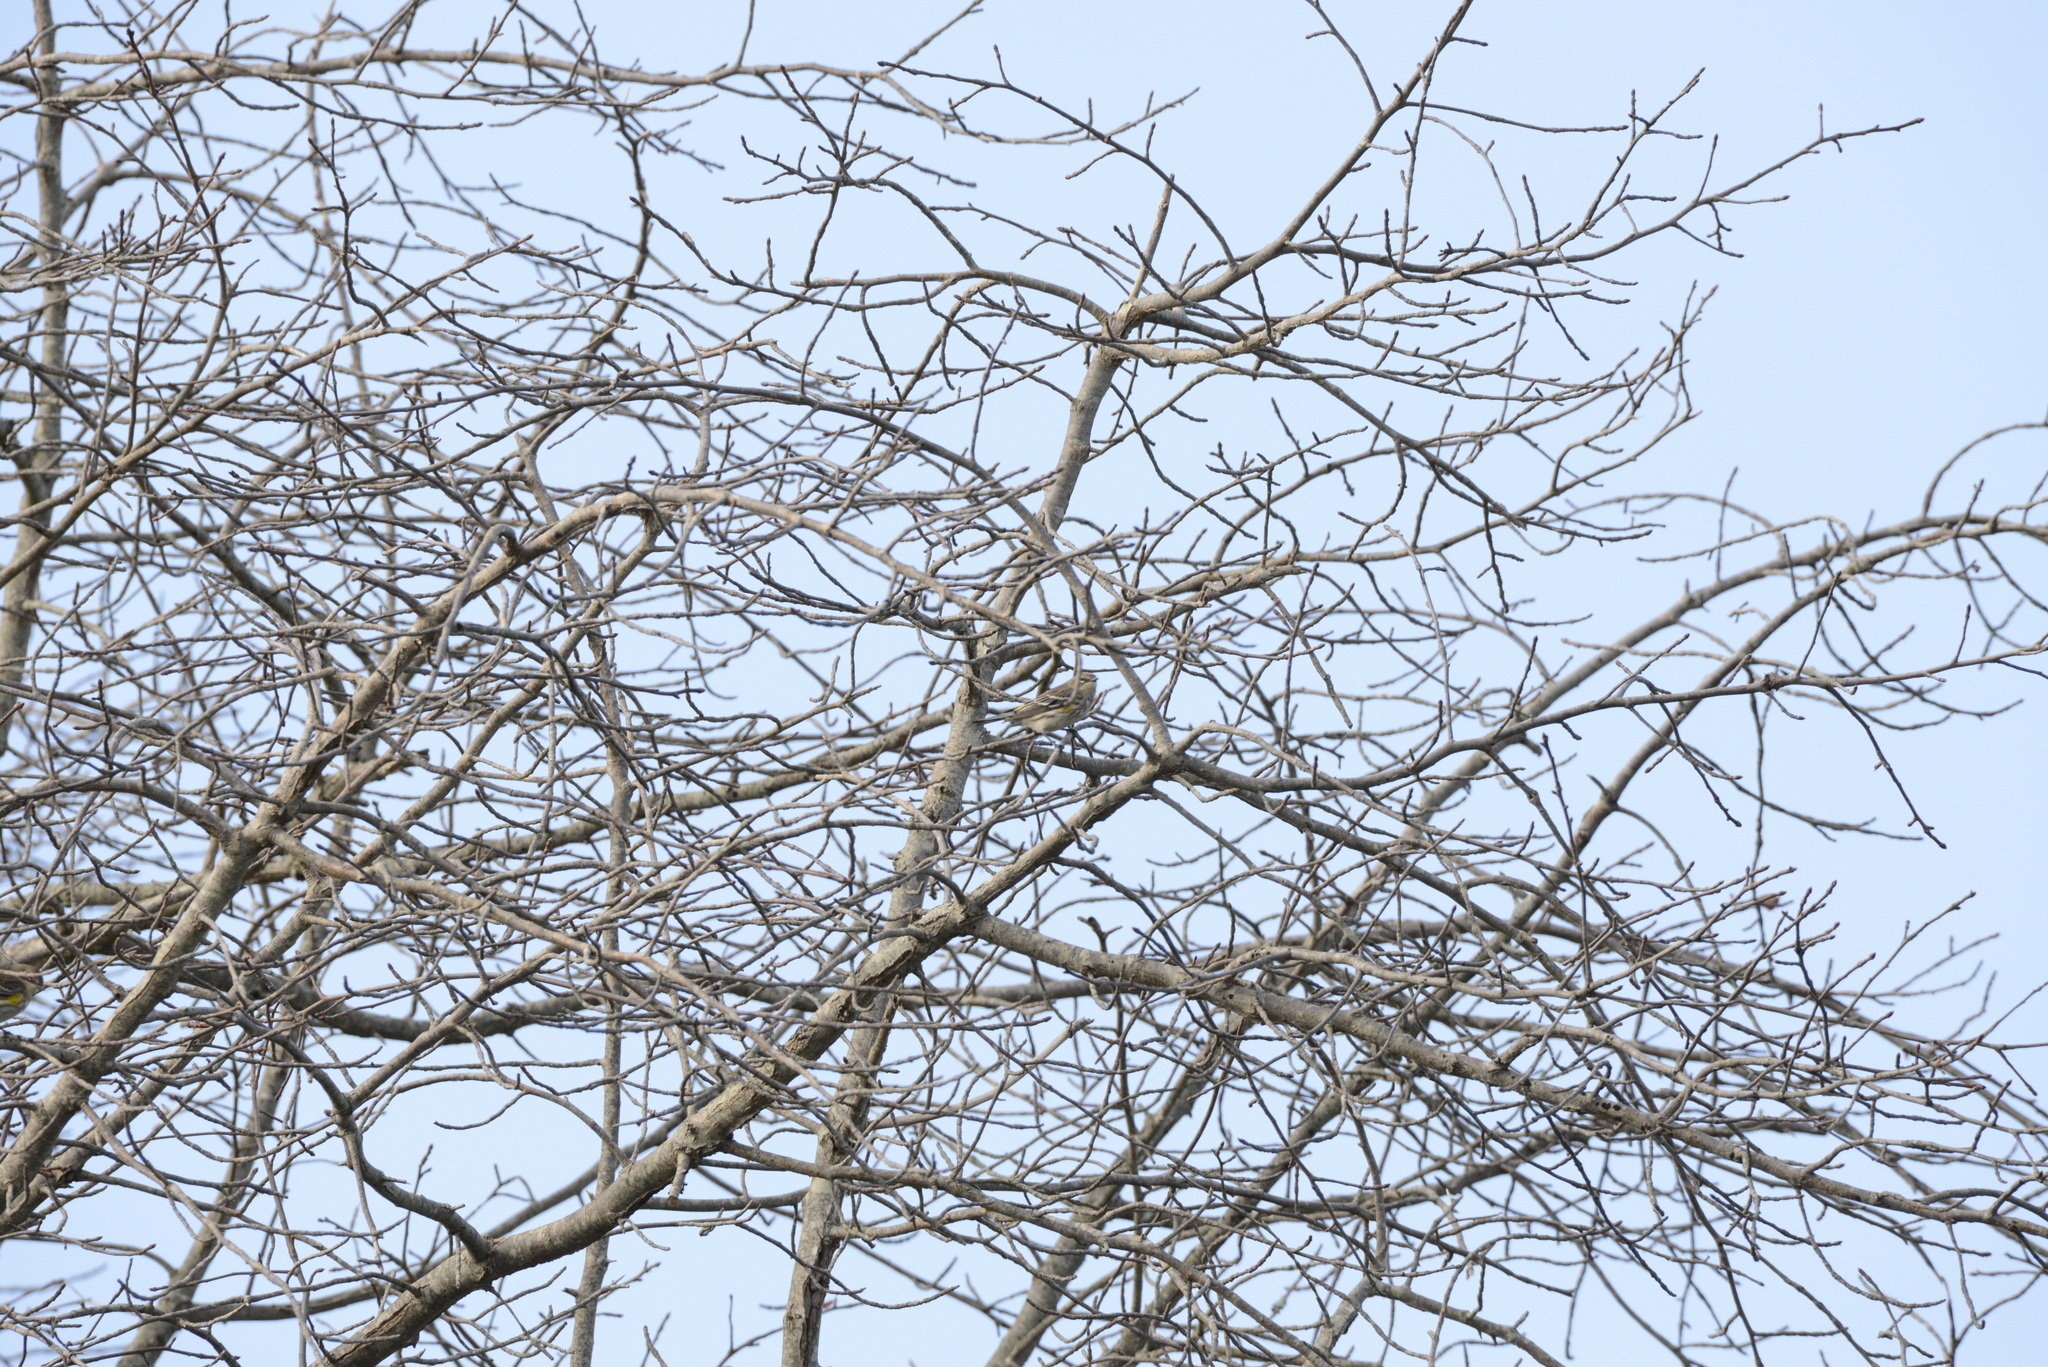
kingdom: Animalia
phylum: Chordata
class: Aves
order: Passeriformes
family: Parulidae
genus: Setophaga
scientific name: Setophaga coronata
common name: Myrtle warbler
